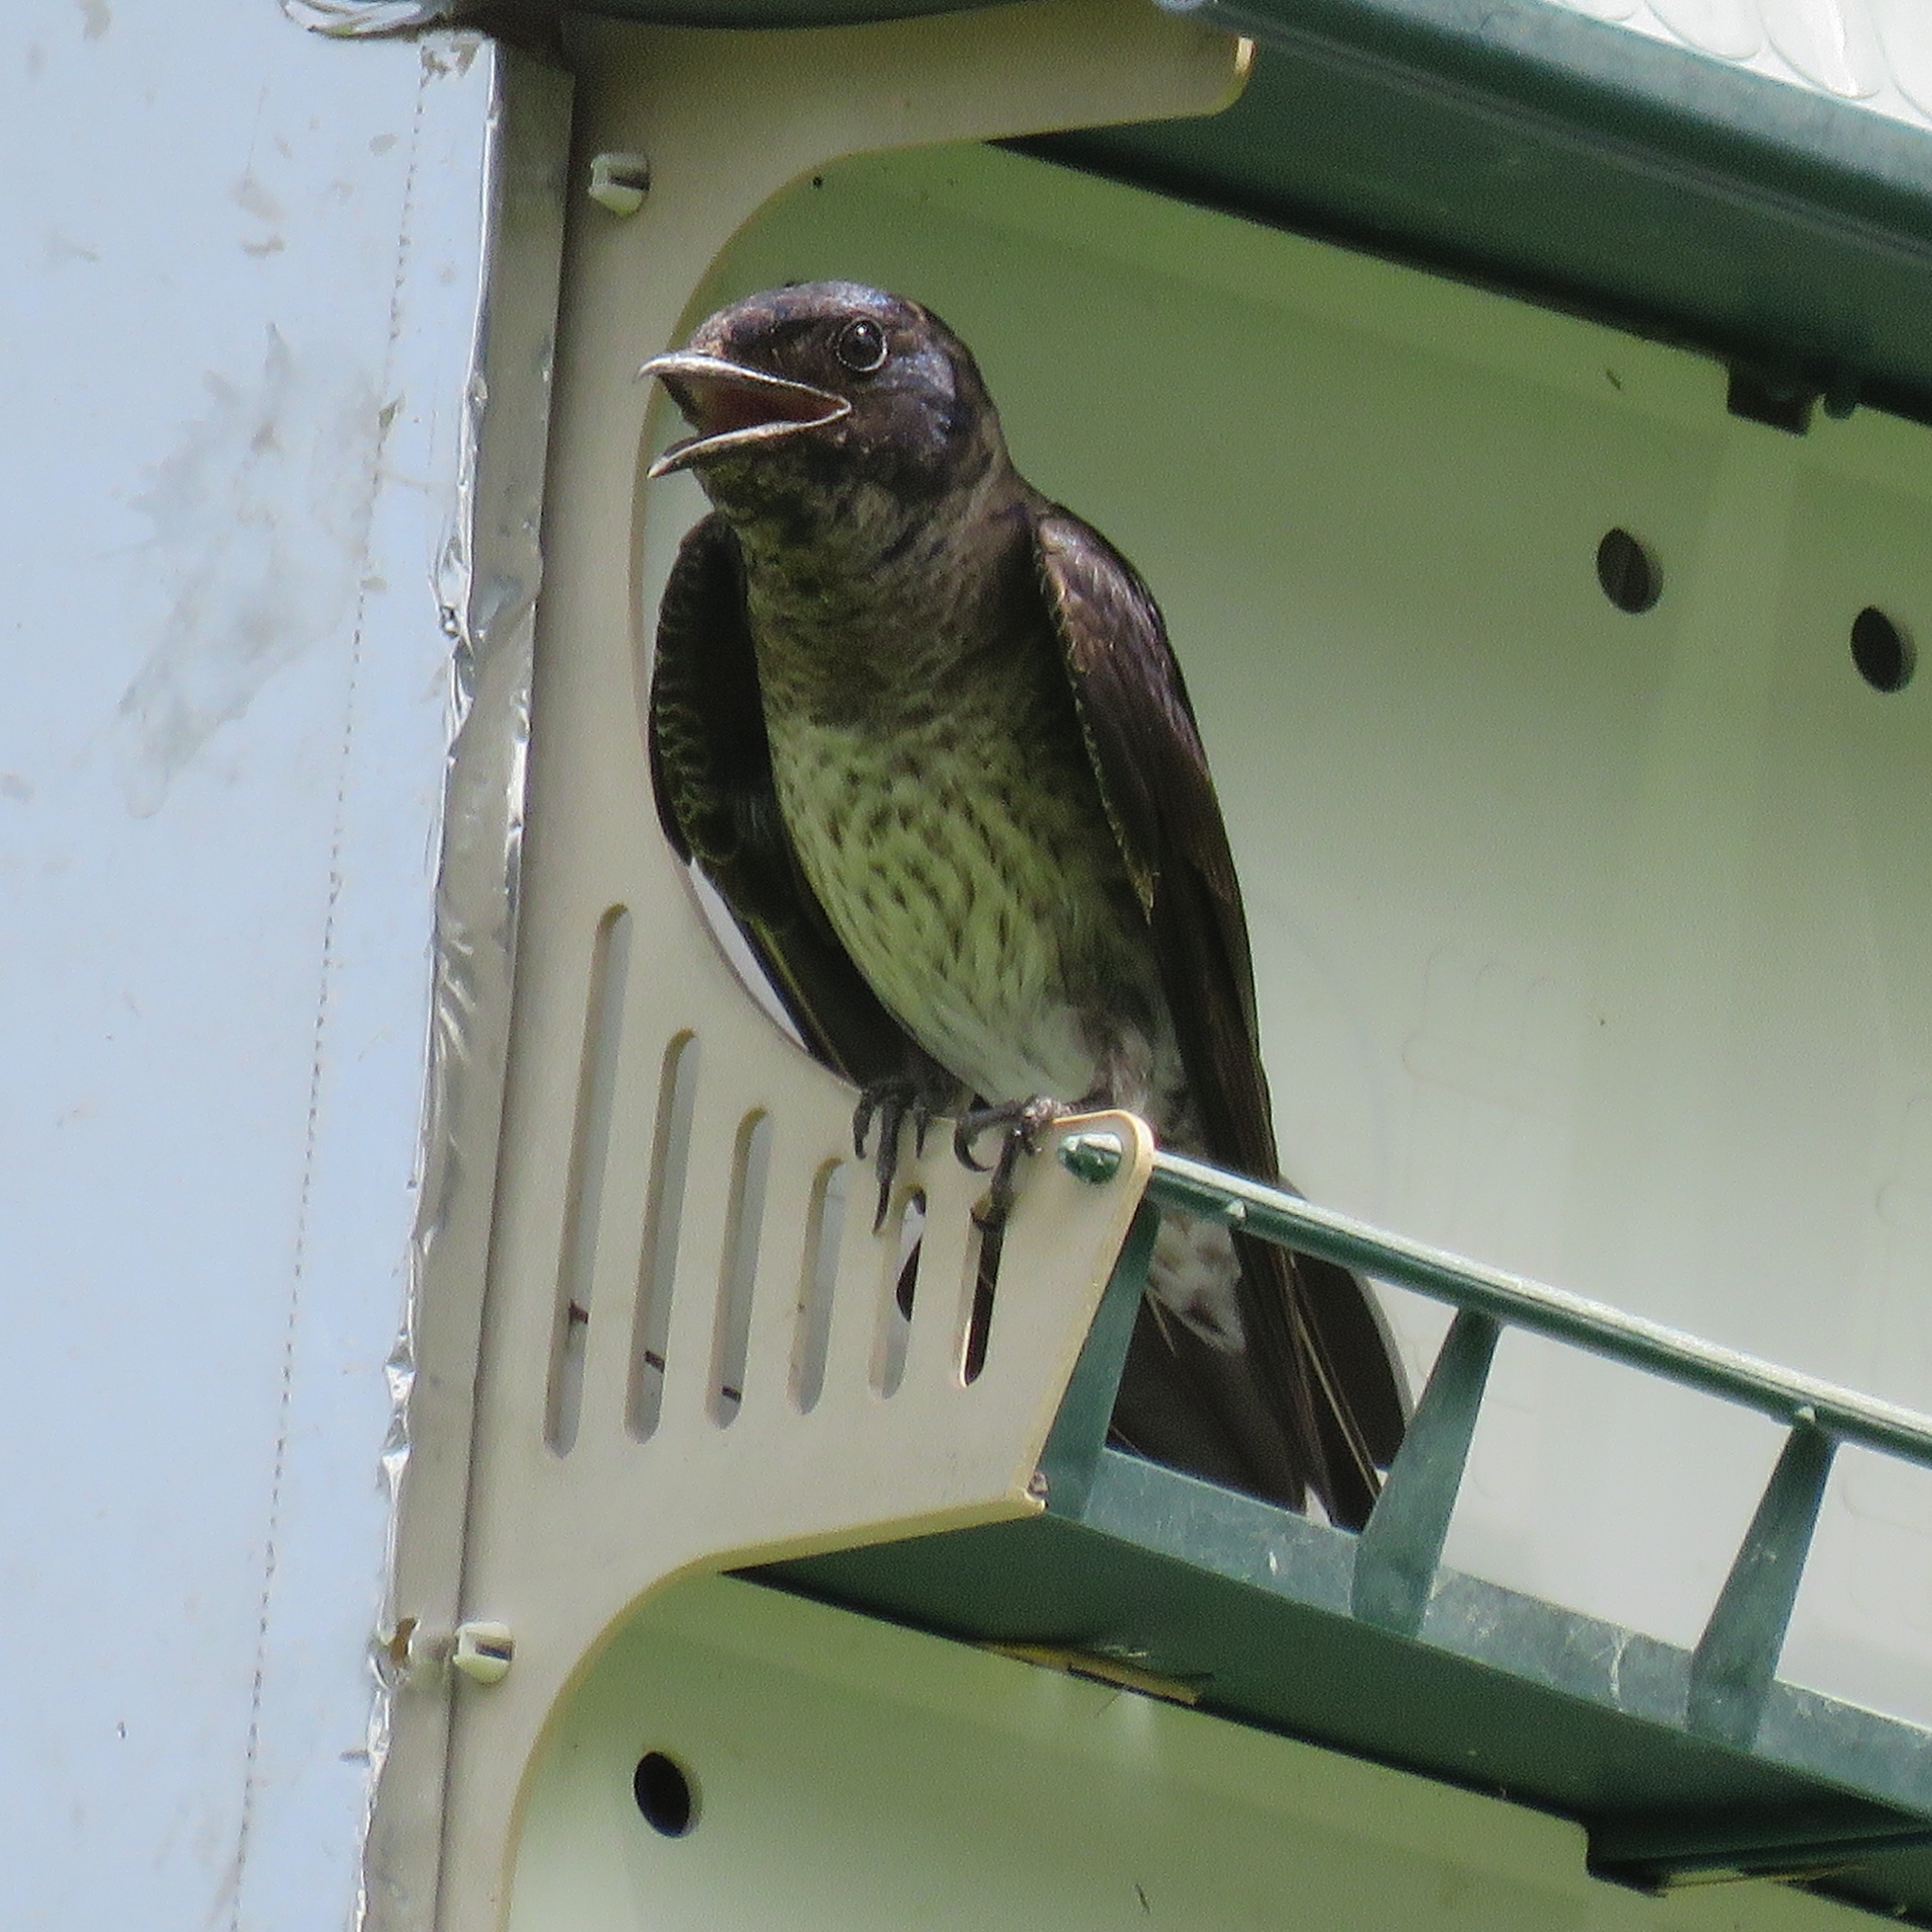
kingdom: Animalia
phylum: Chordata
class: Aves
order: Passeriformes
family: Hirundinidae
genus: Progne
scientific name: Progne subis
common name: Purple martin
